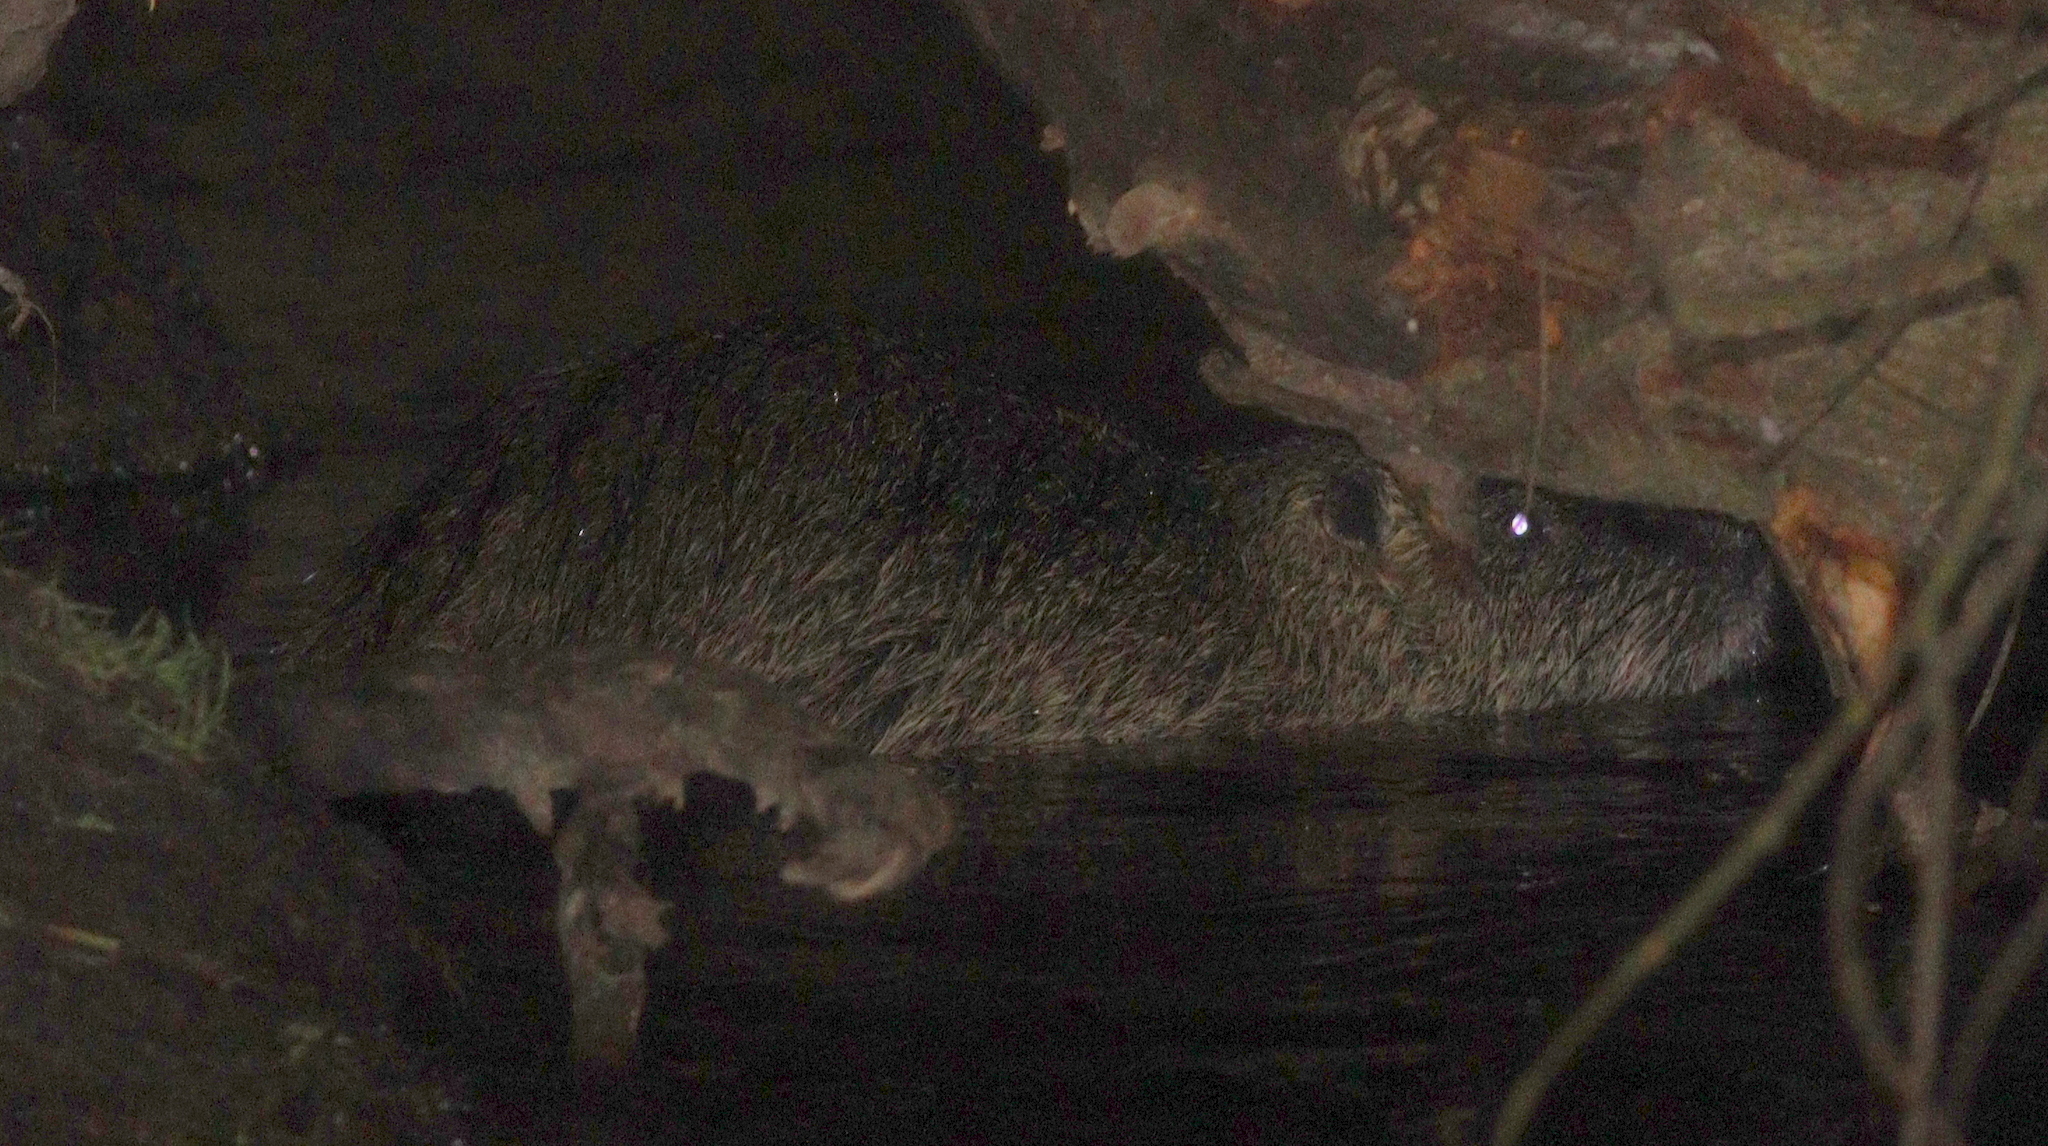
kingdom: Animalia
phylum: Chordata
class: Mammalia
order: Rodentia
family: Myocastoridae
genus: Myocastor
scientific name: Myocastor coypus
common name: Coypu
